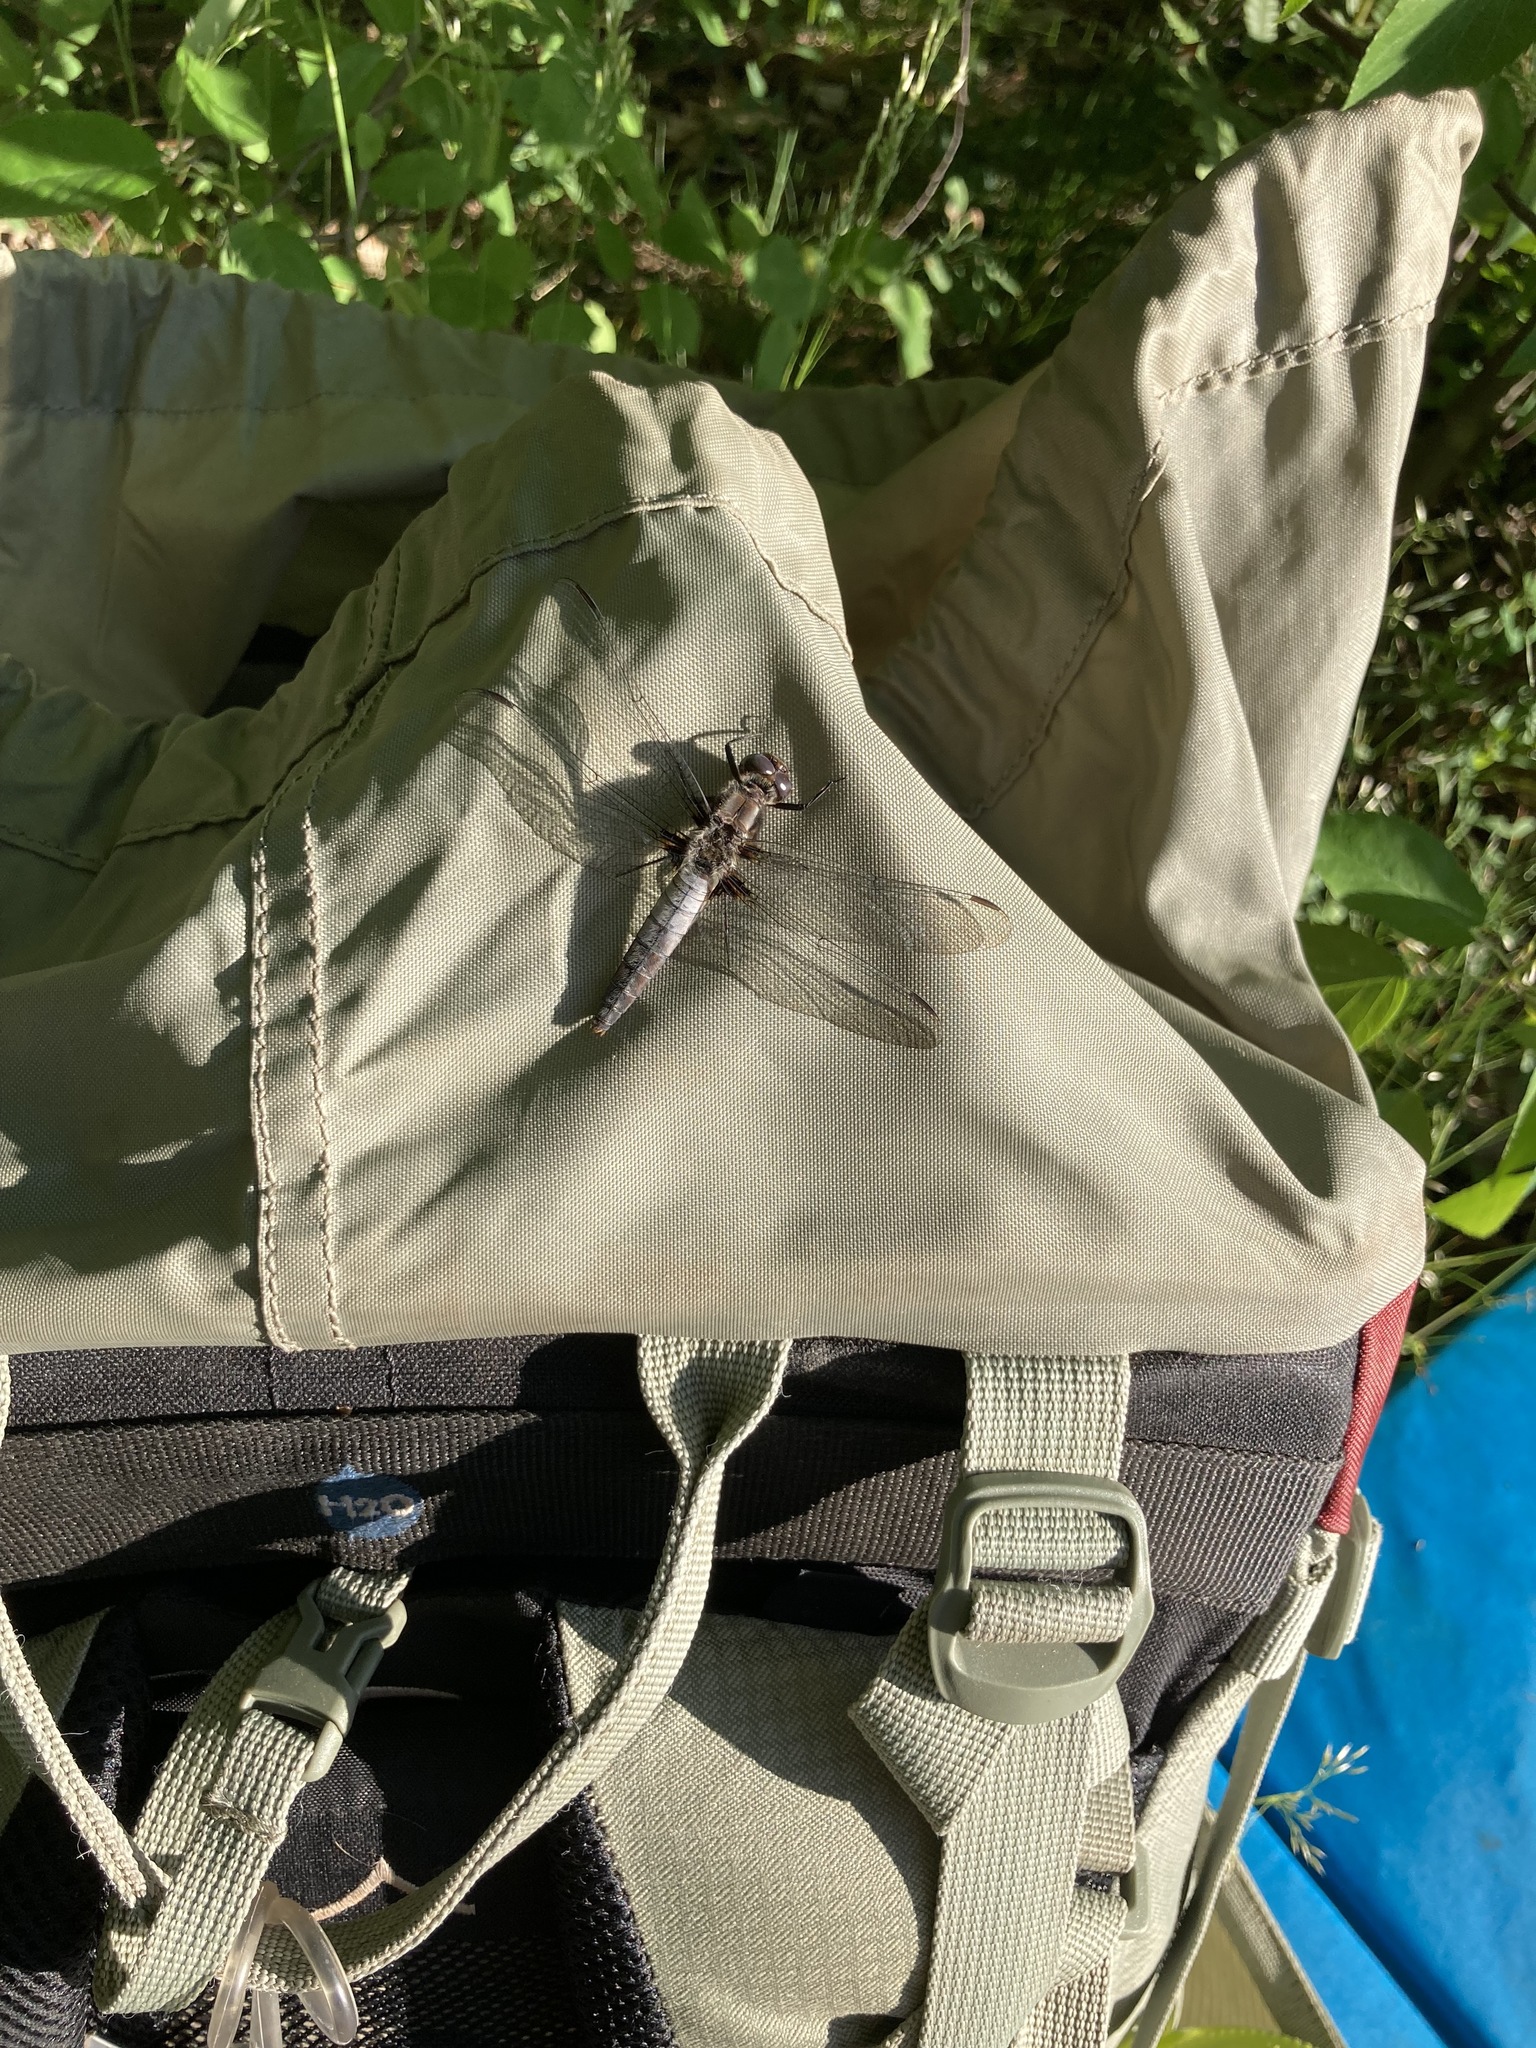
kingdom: Animalia
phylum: Arthropoda
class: Insecta
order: Odonata
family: Libellulidae
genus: Ladona
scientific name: Ladona julia
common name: Chalk-fronted corporal
